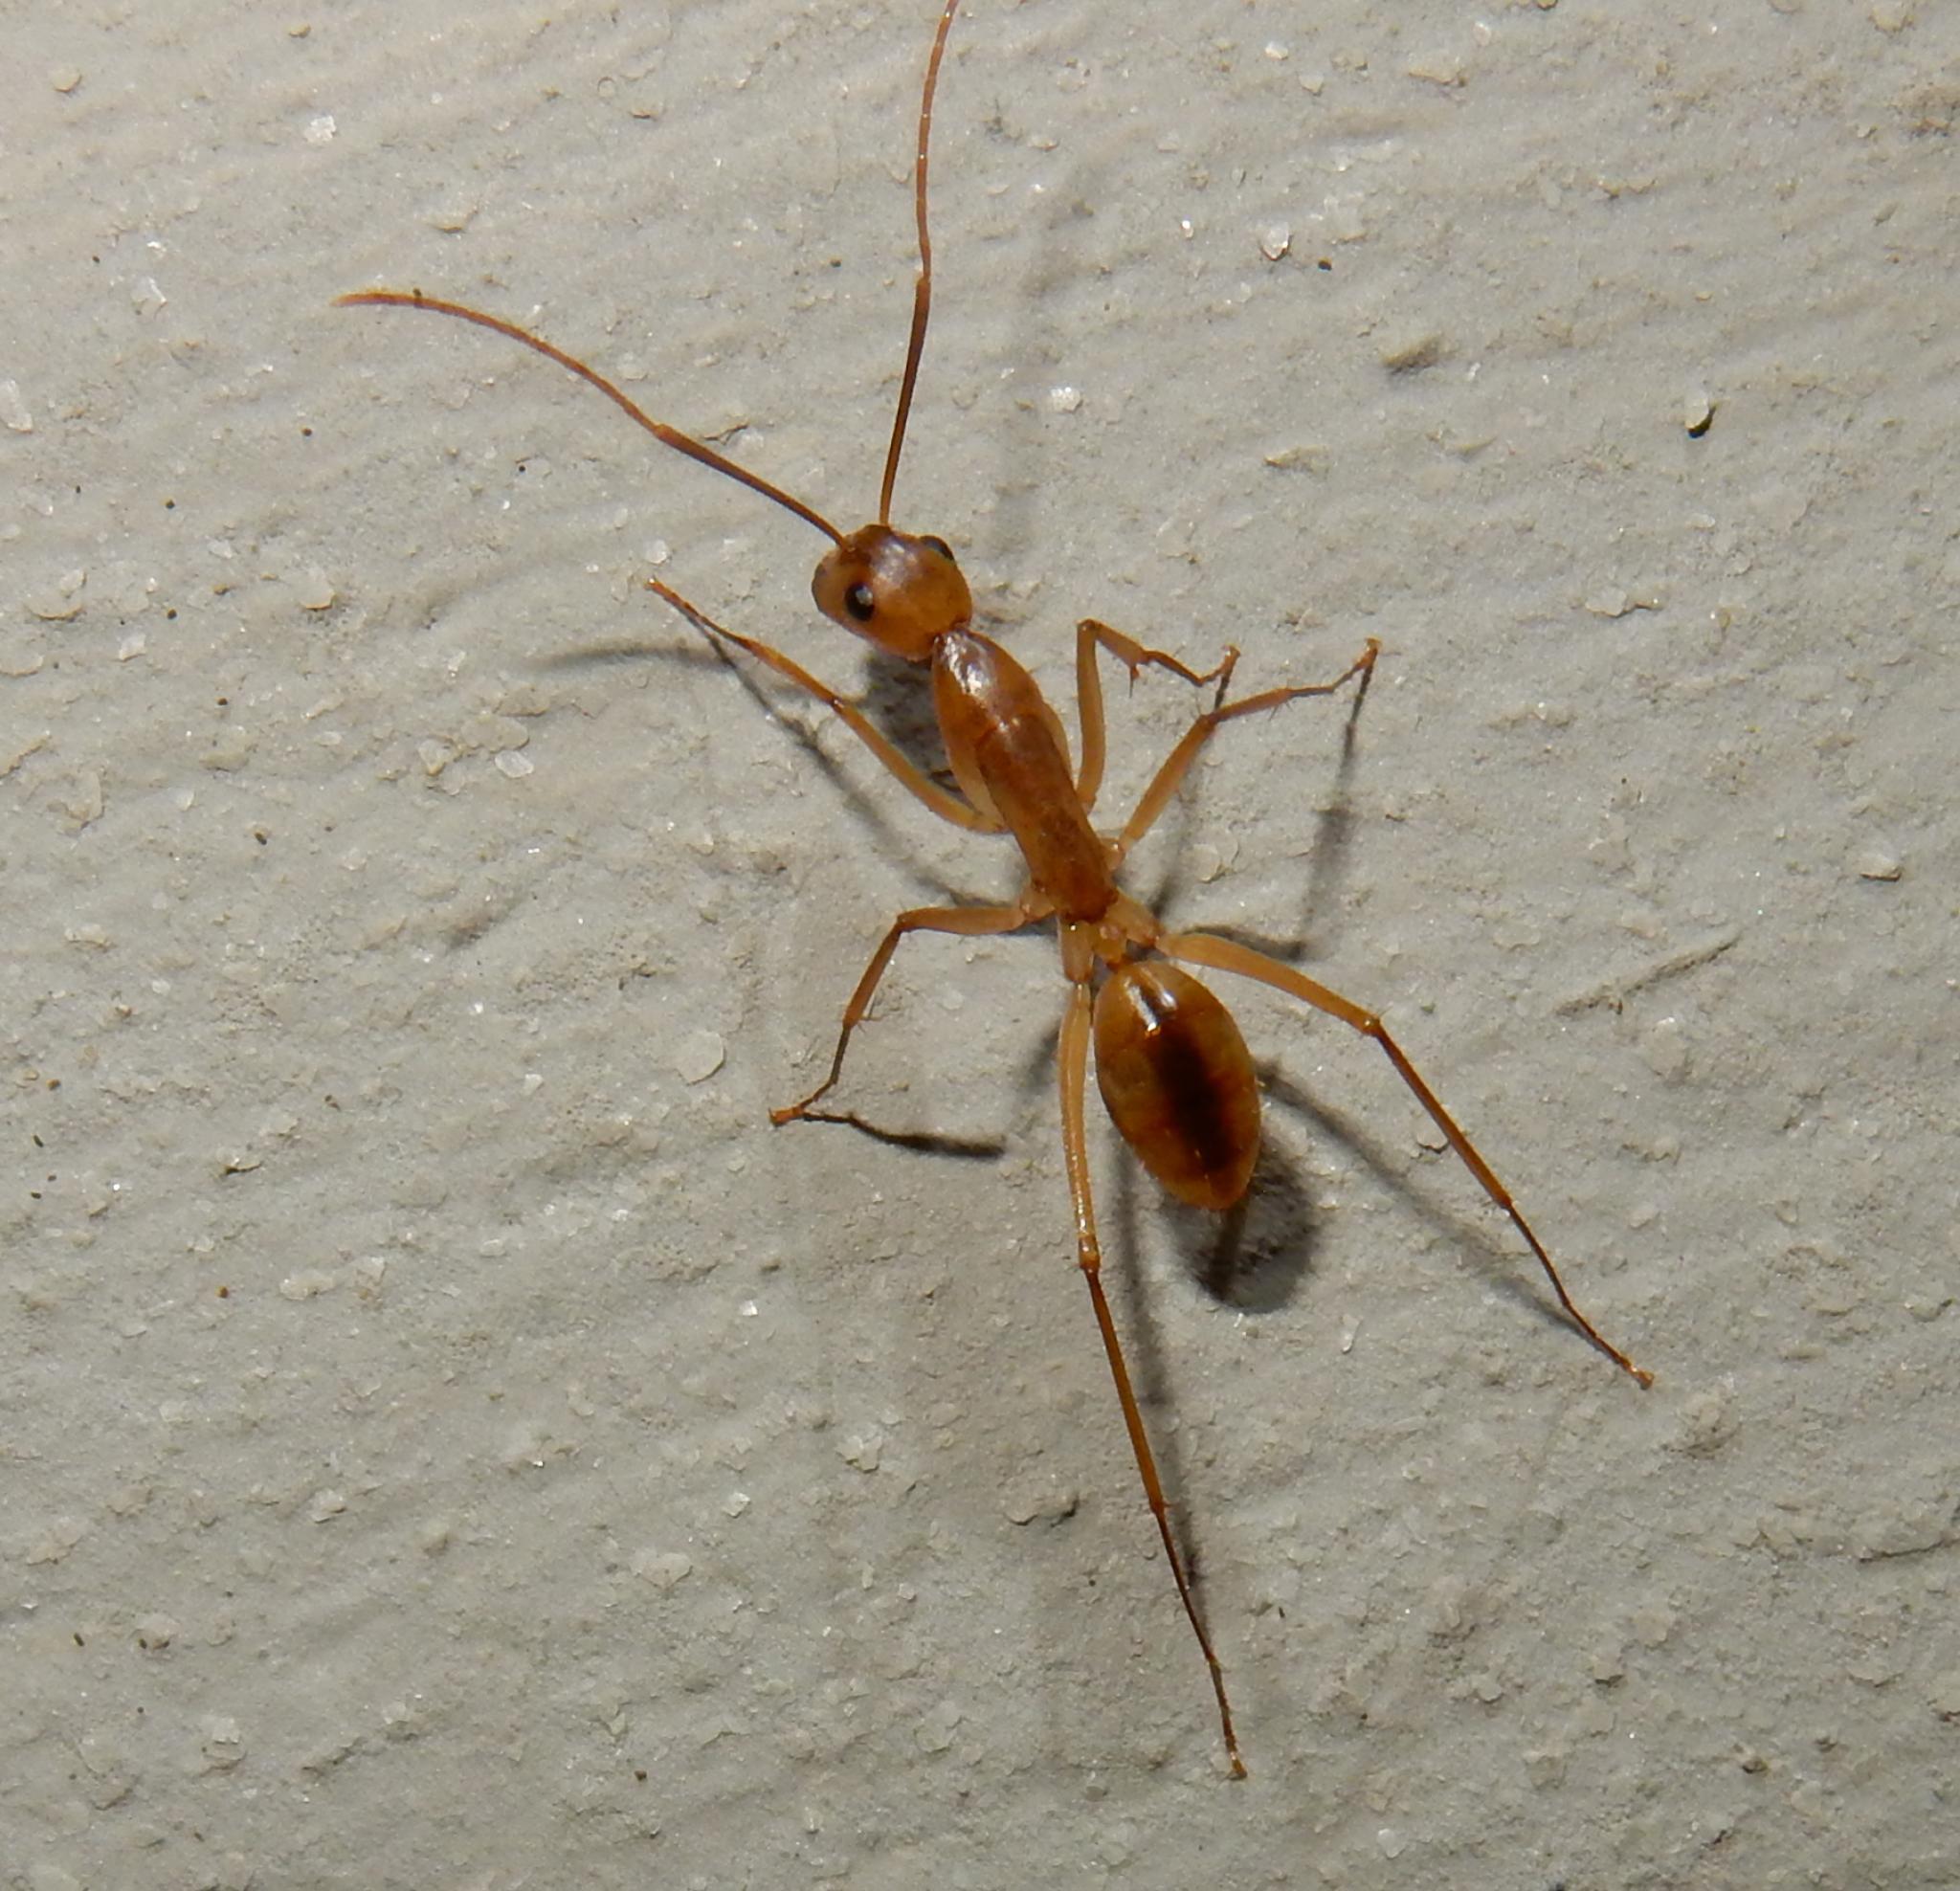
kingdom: Animalia
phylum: Arthropoda
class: Insecta
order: Hymenoptera
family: Formicidae
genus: Camponotus
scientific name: Camponotus maculatus
